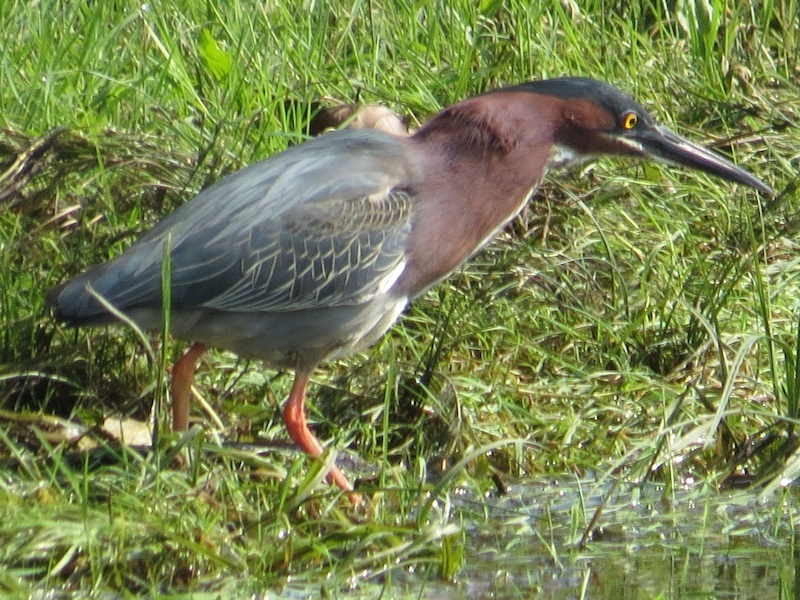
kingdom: Animalia
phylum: Chordata
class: Aves
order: Pelecaniformes
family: Ardeidae
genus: Butorides
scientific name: Butorides virescens
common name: Green heron
